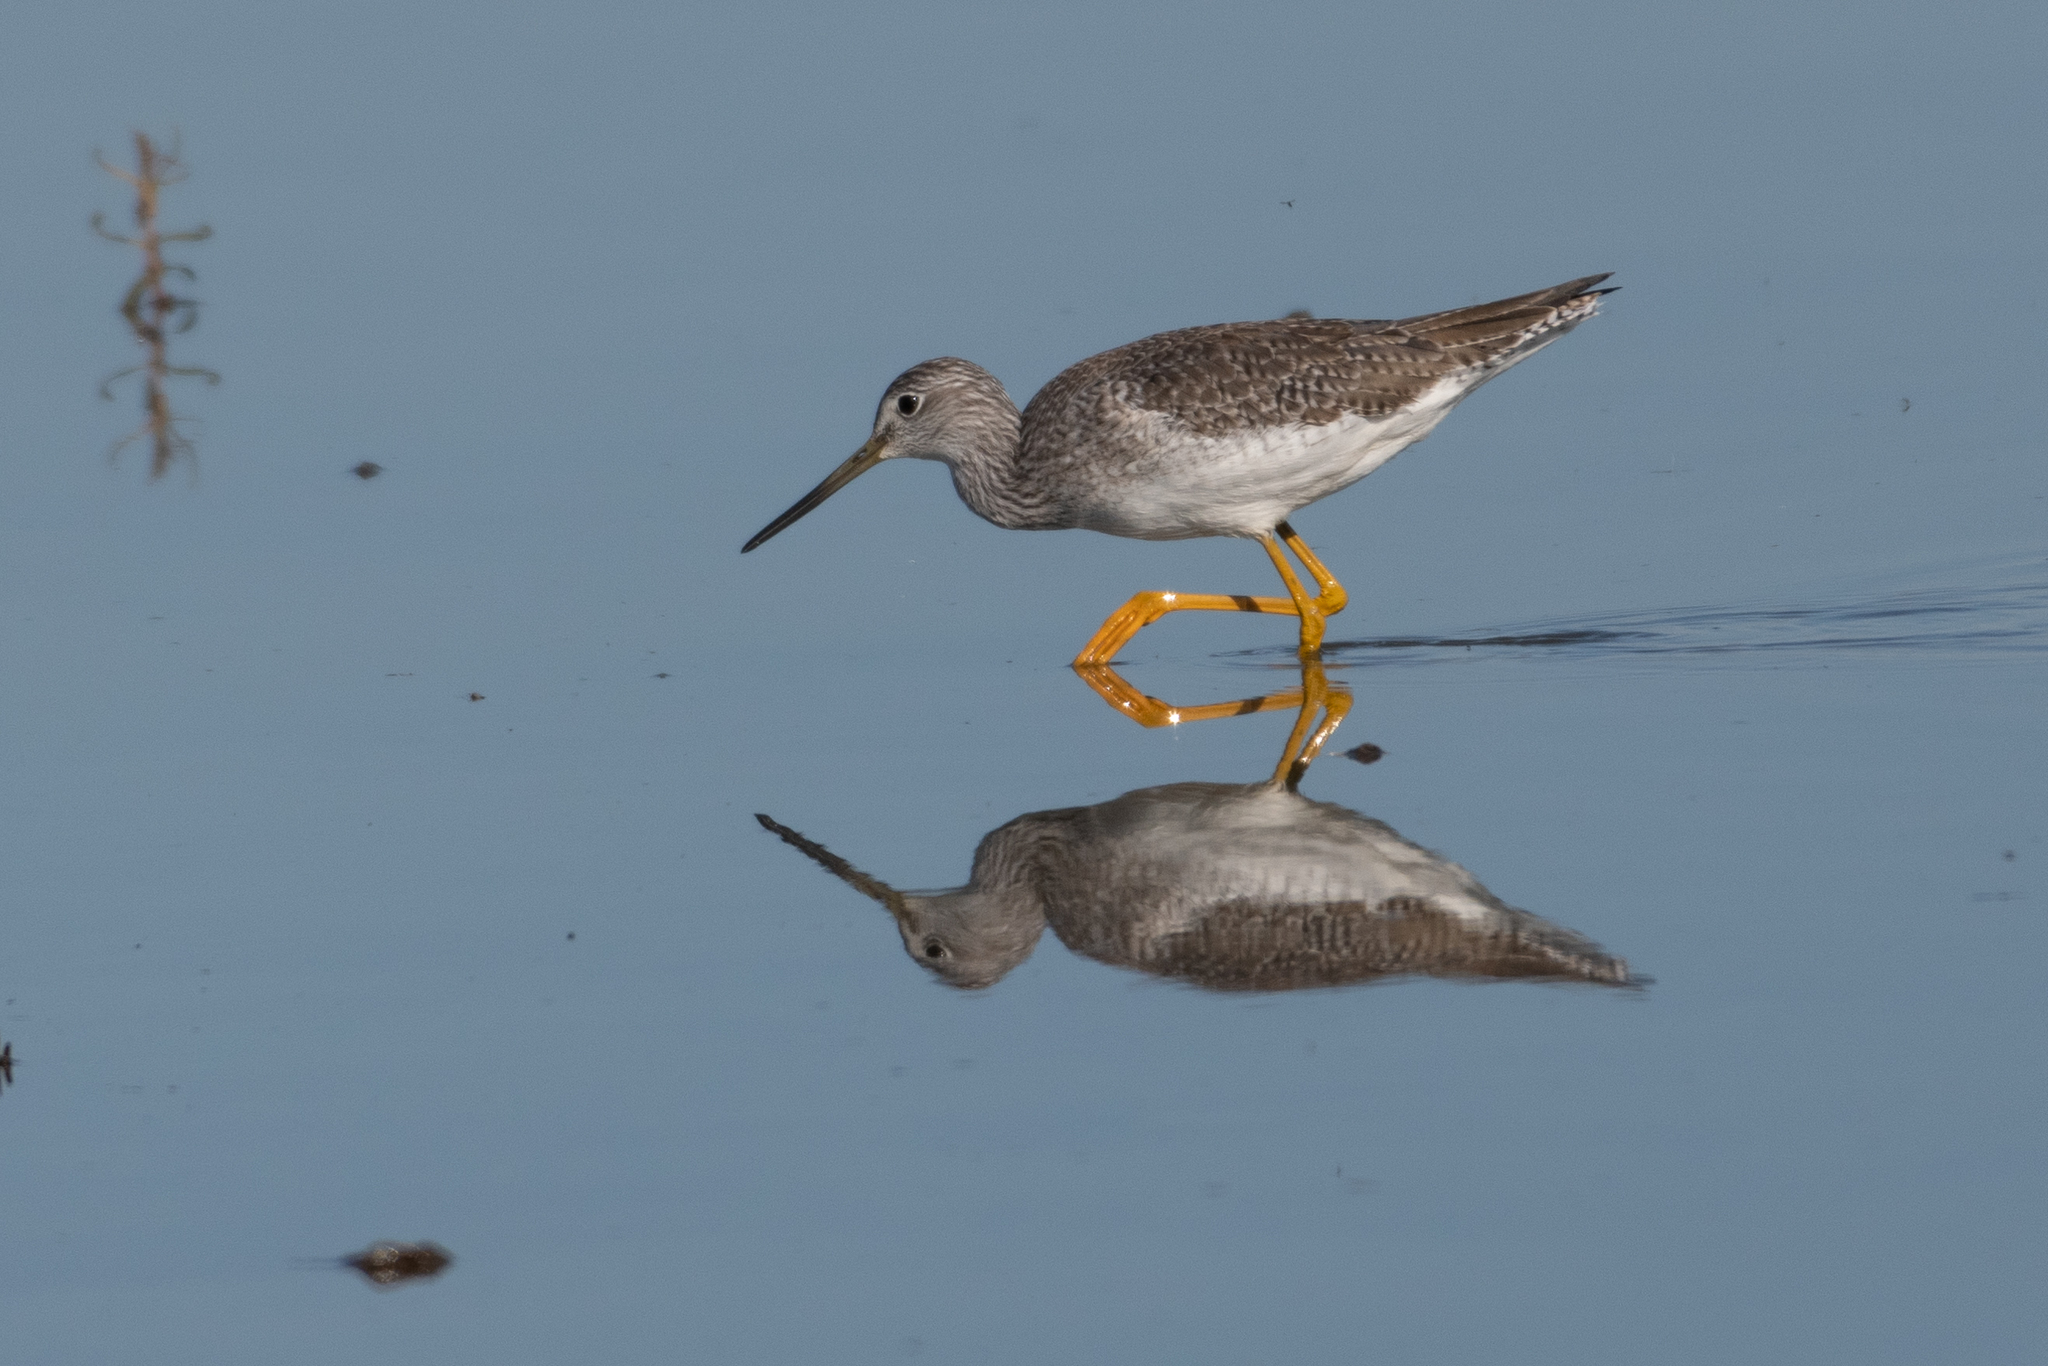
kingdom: Animalia
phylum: Chordata
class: Aves
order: Charadriiformes
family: Scolopacidae
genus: Tringa
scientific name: Tringa melanoleuca
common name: Greater yellowlegs
